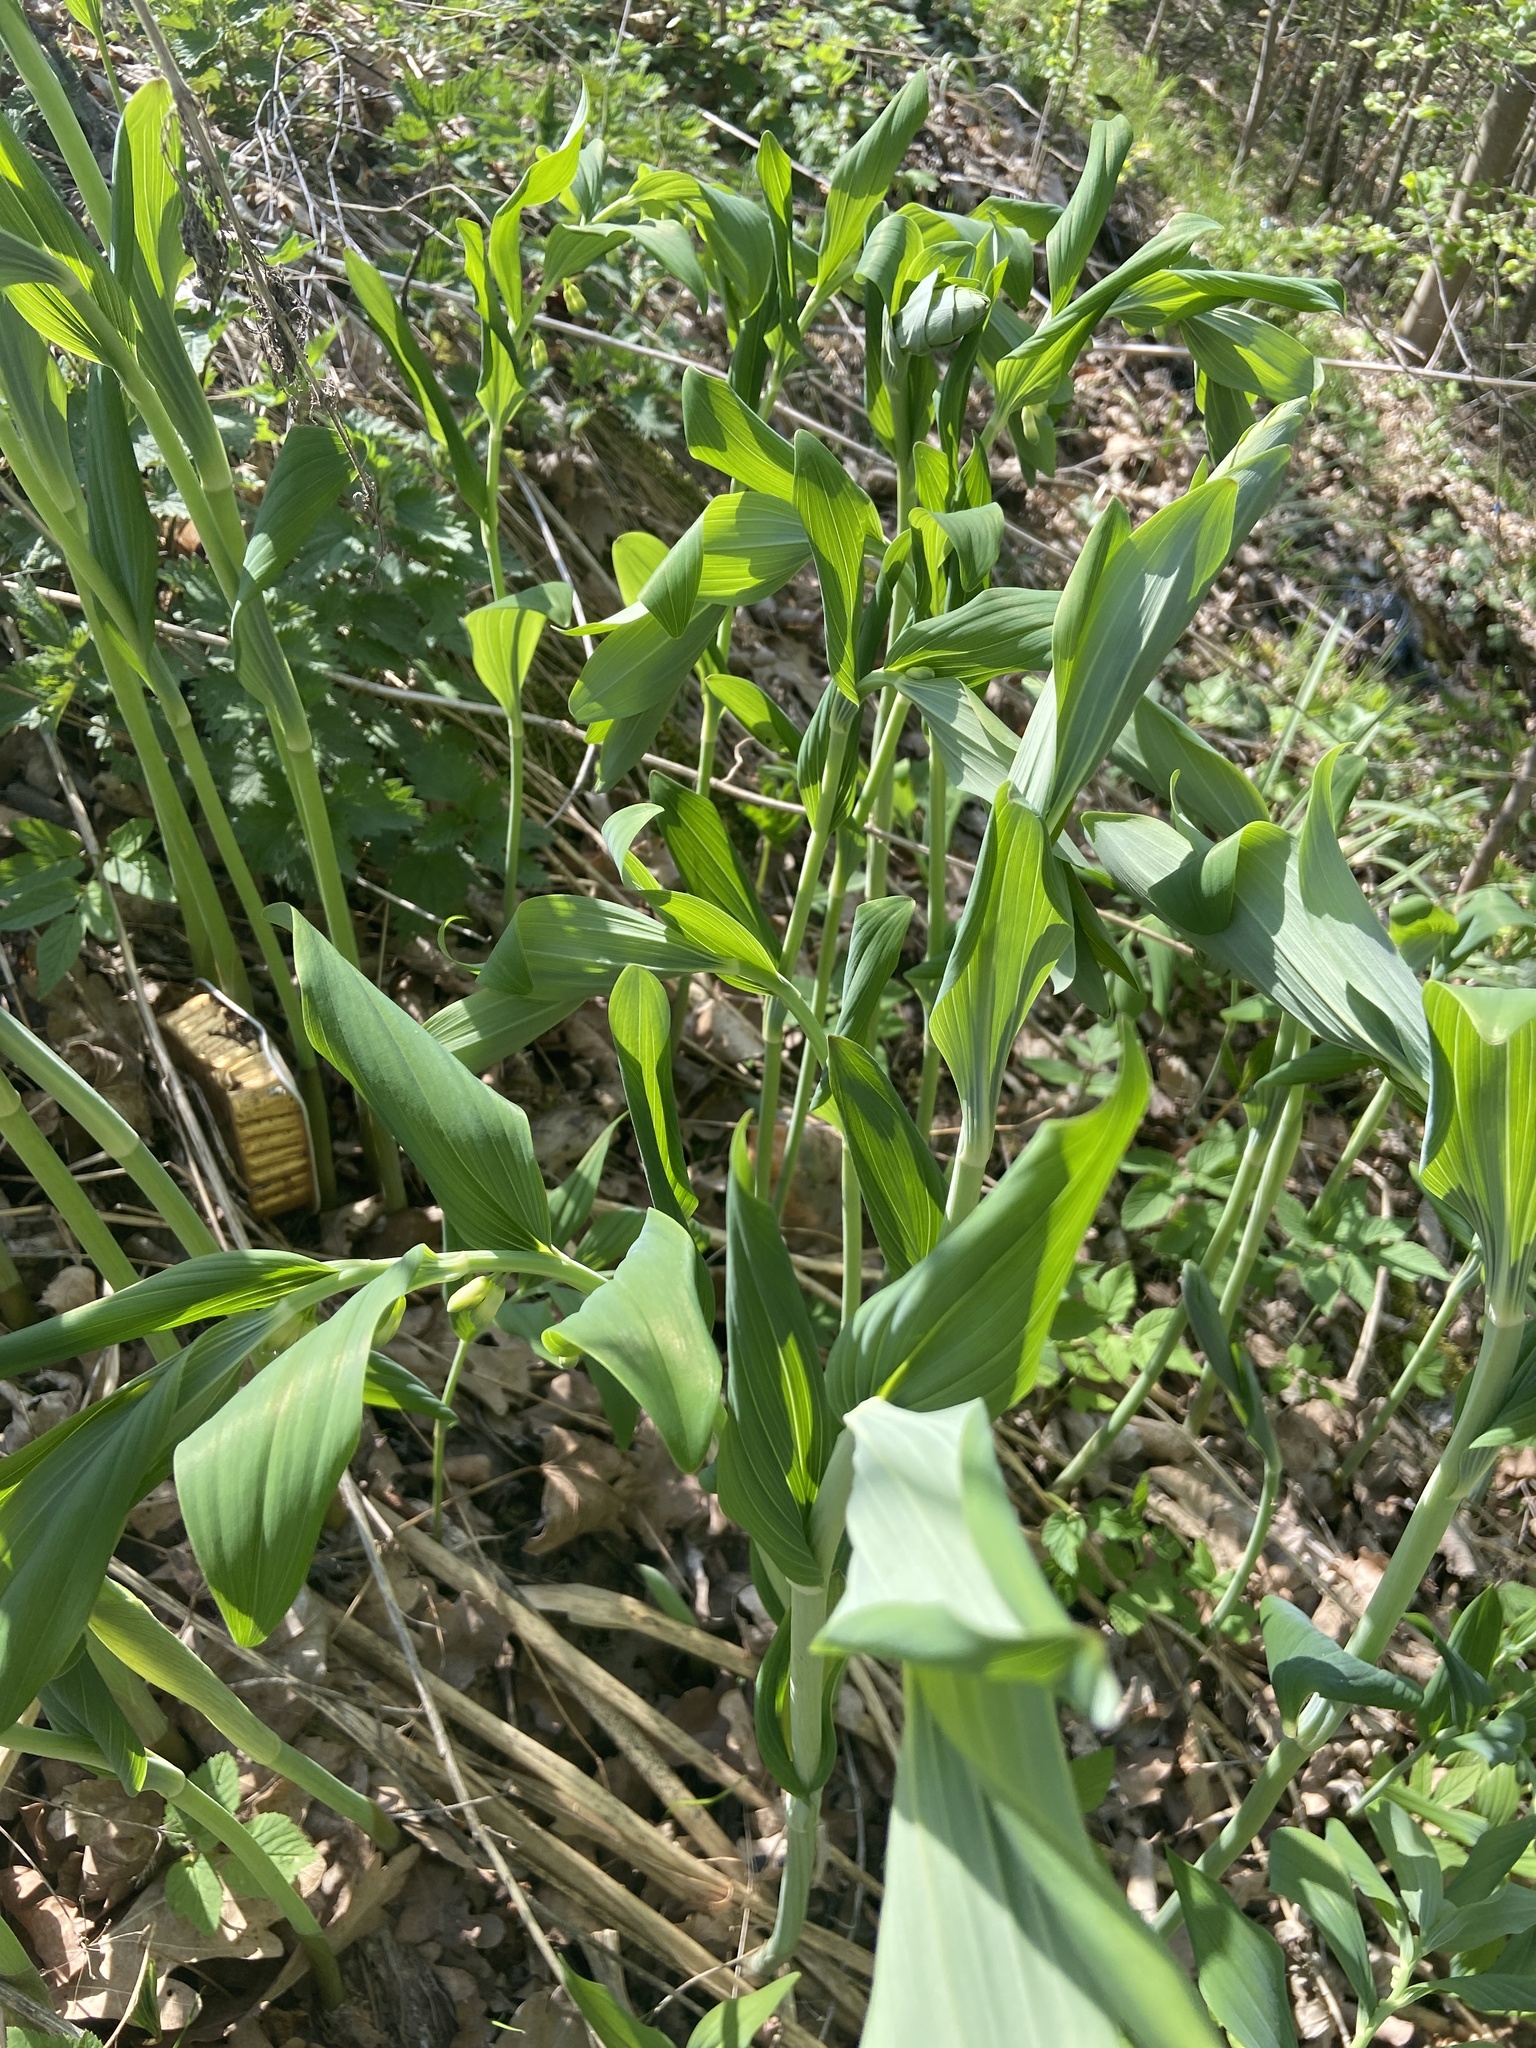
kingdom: Plantae
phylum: Tracheophyta
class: Liliopsida
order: Asparagales
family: Asparagaceae
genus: Polygonatum
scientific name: Polygonatum multiflorum
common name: Solomon's-seal
